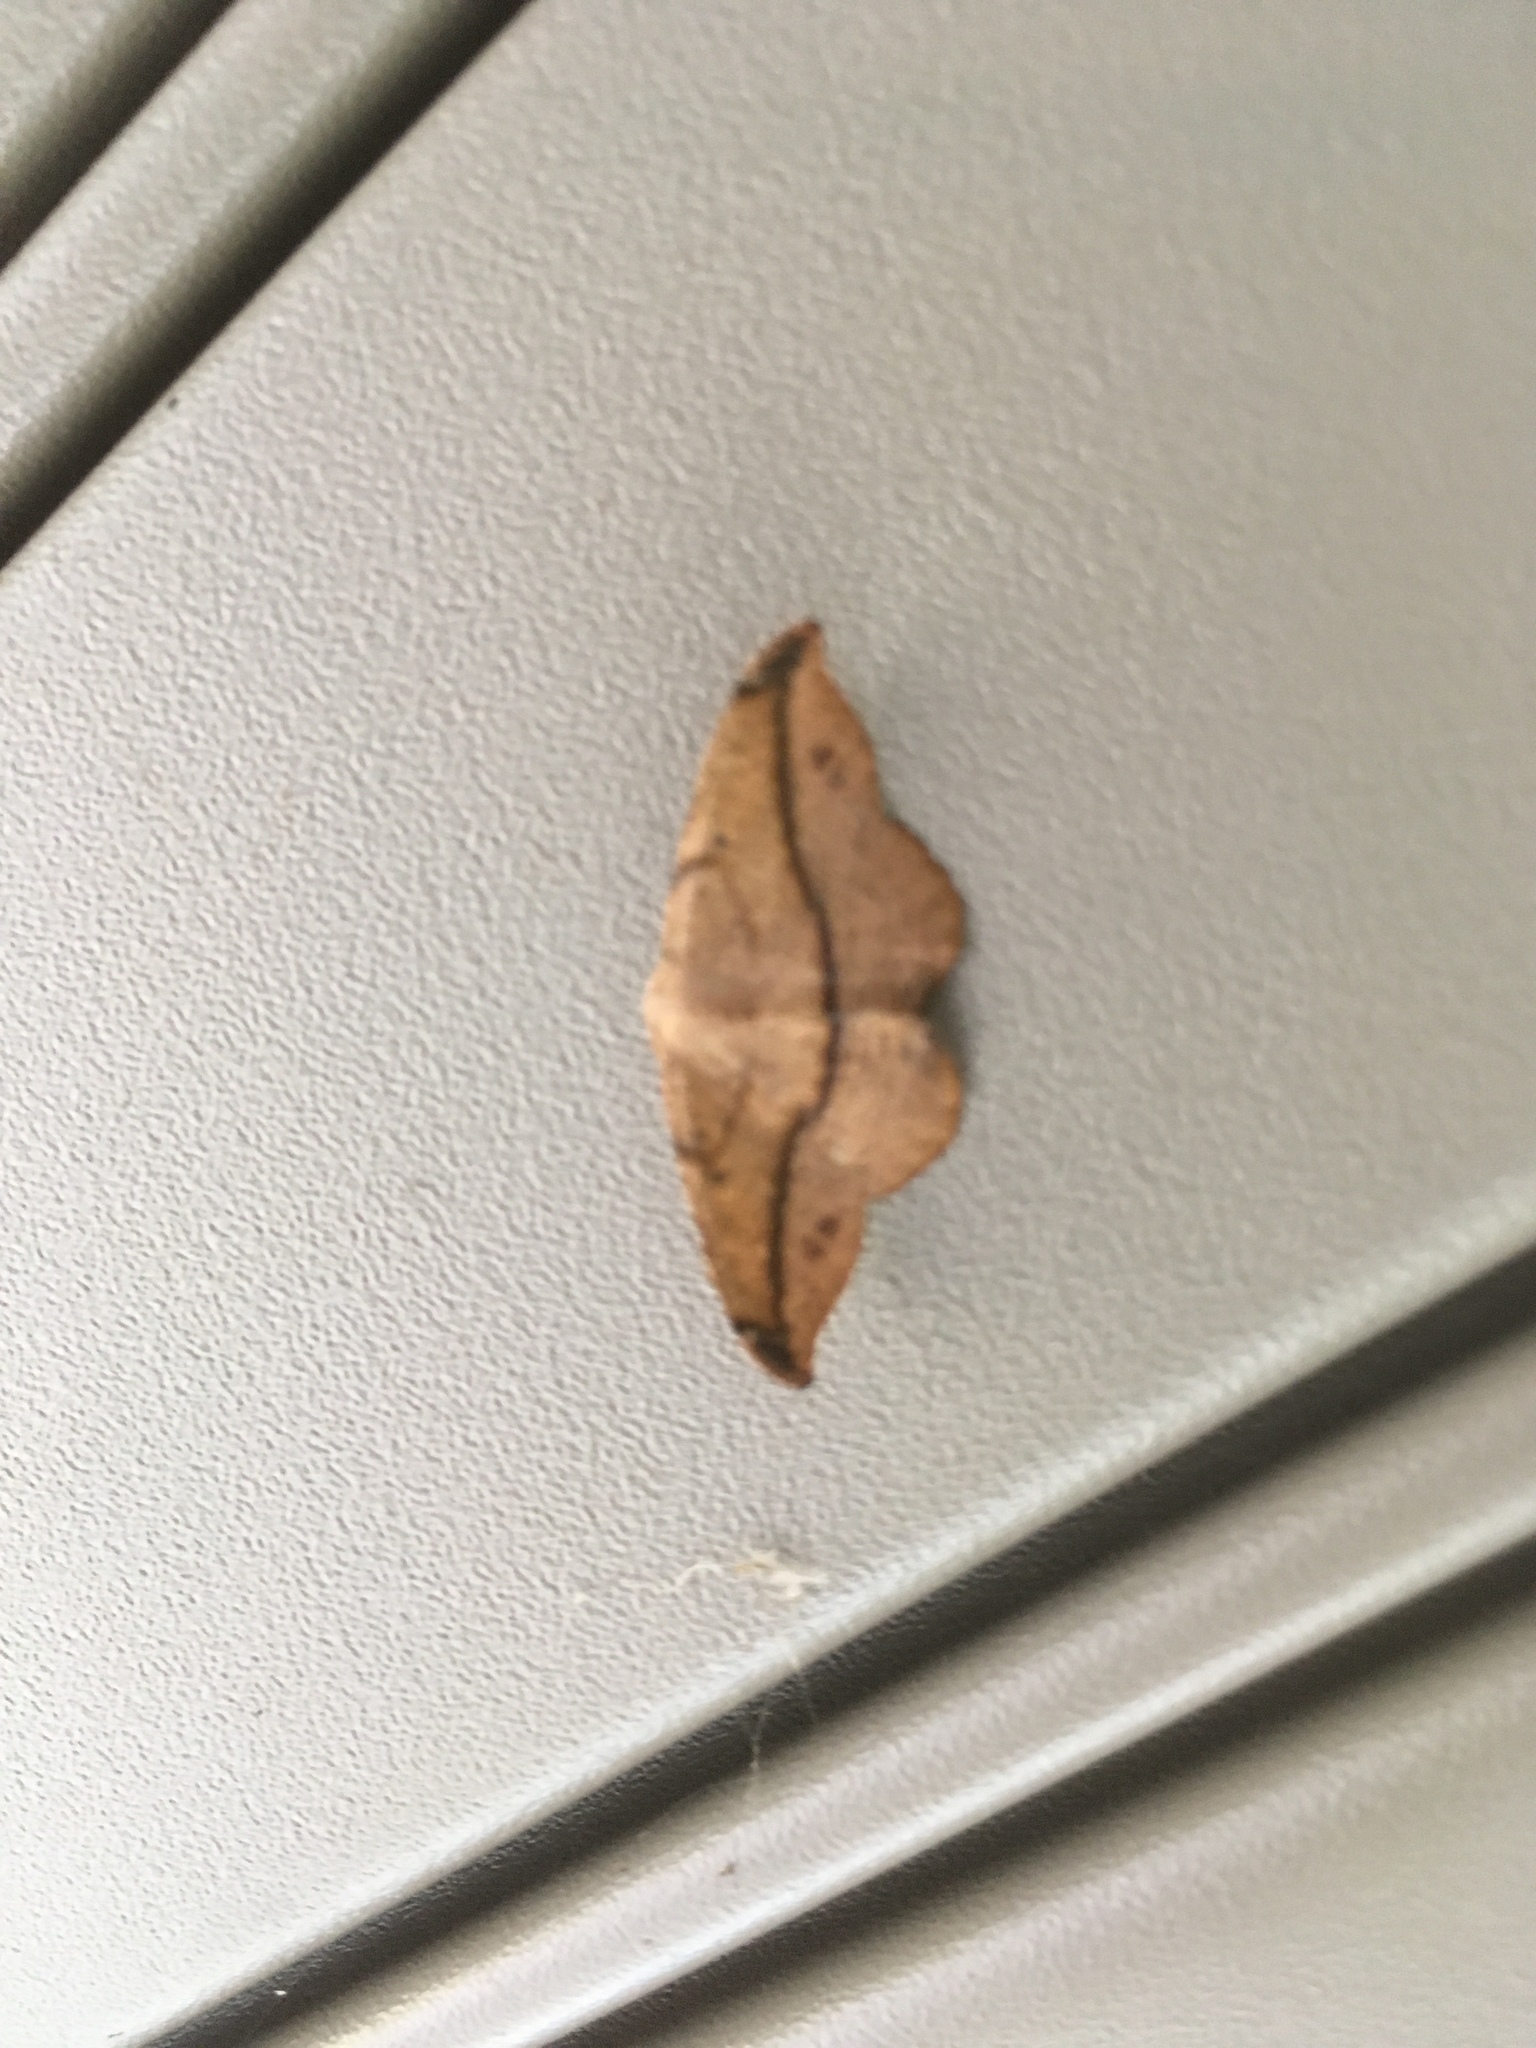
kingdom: Animalia
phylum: Arthropoda
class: Insecta
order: Lepidoptera
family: Geometridae
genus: Patalene
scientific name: Patalene olyzonaria
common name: Juniper geometer moth
